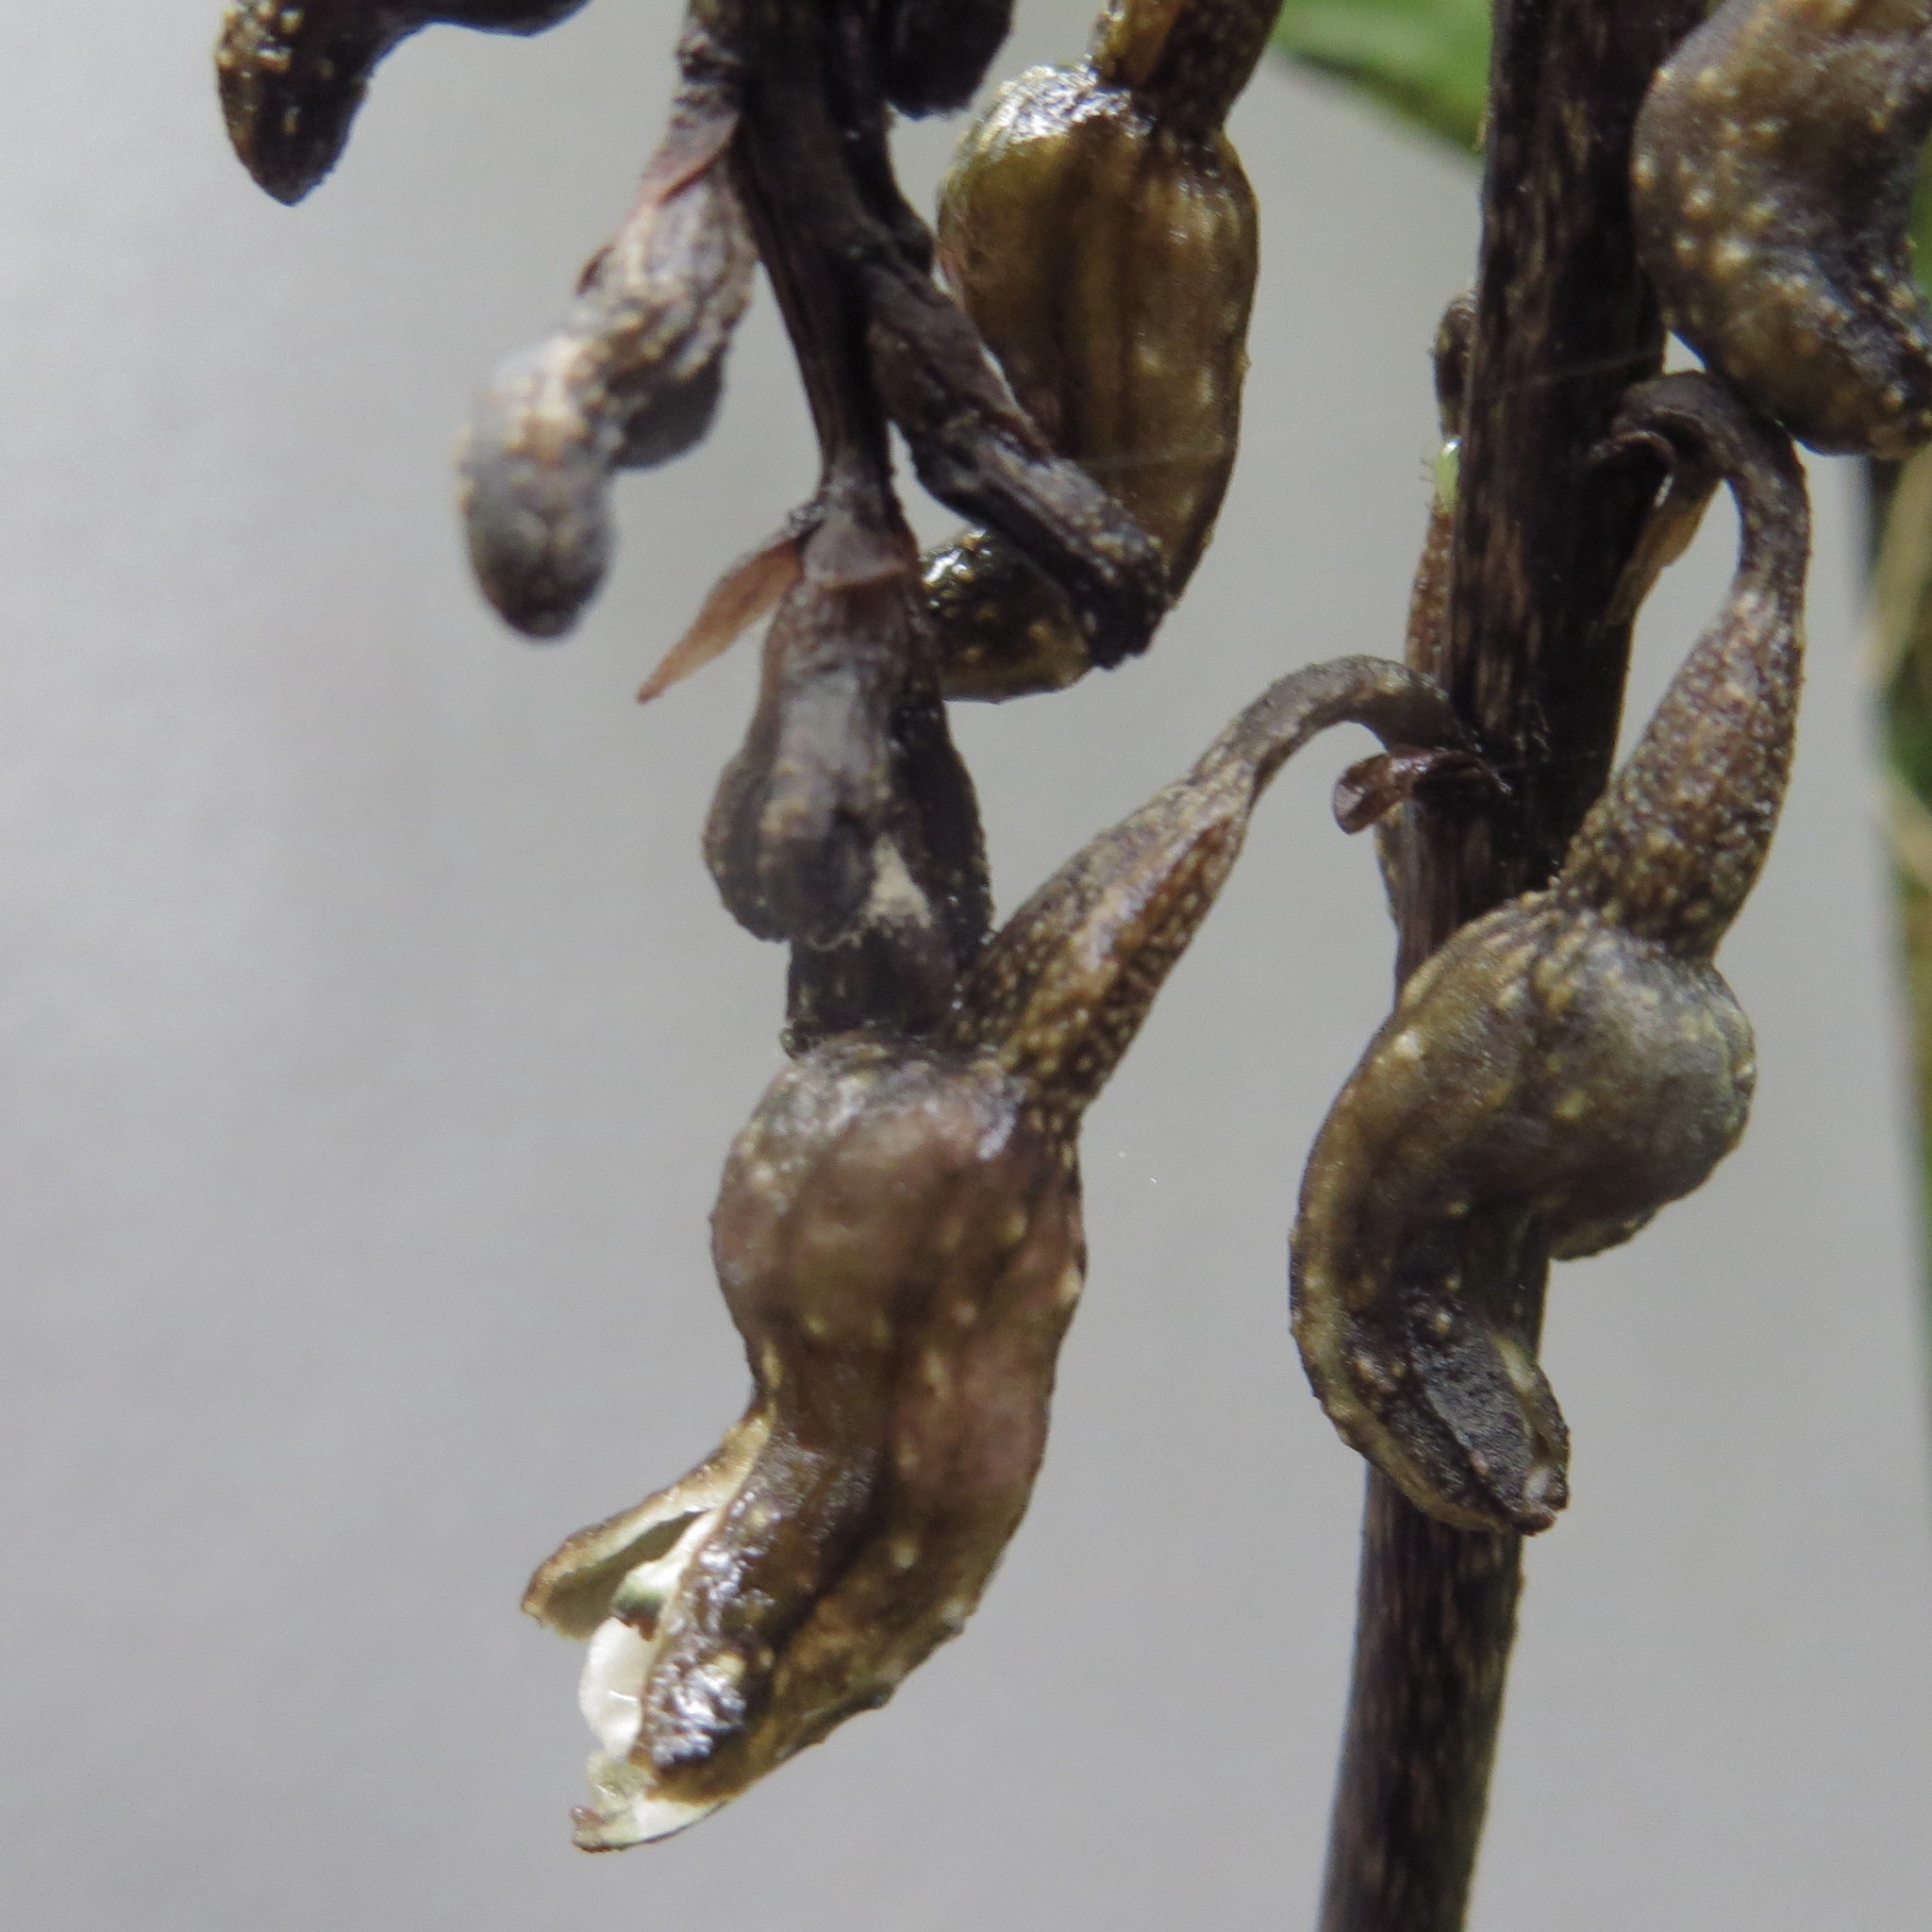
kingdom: Plantae
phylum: Tracheophyta
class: Liliopsida
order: Asparagales
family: Orchidaceae
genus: Gastrodia
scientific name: Gastrodia cunninghamii
